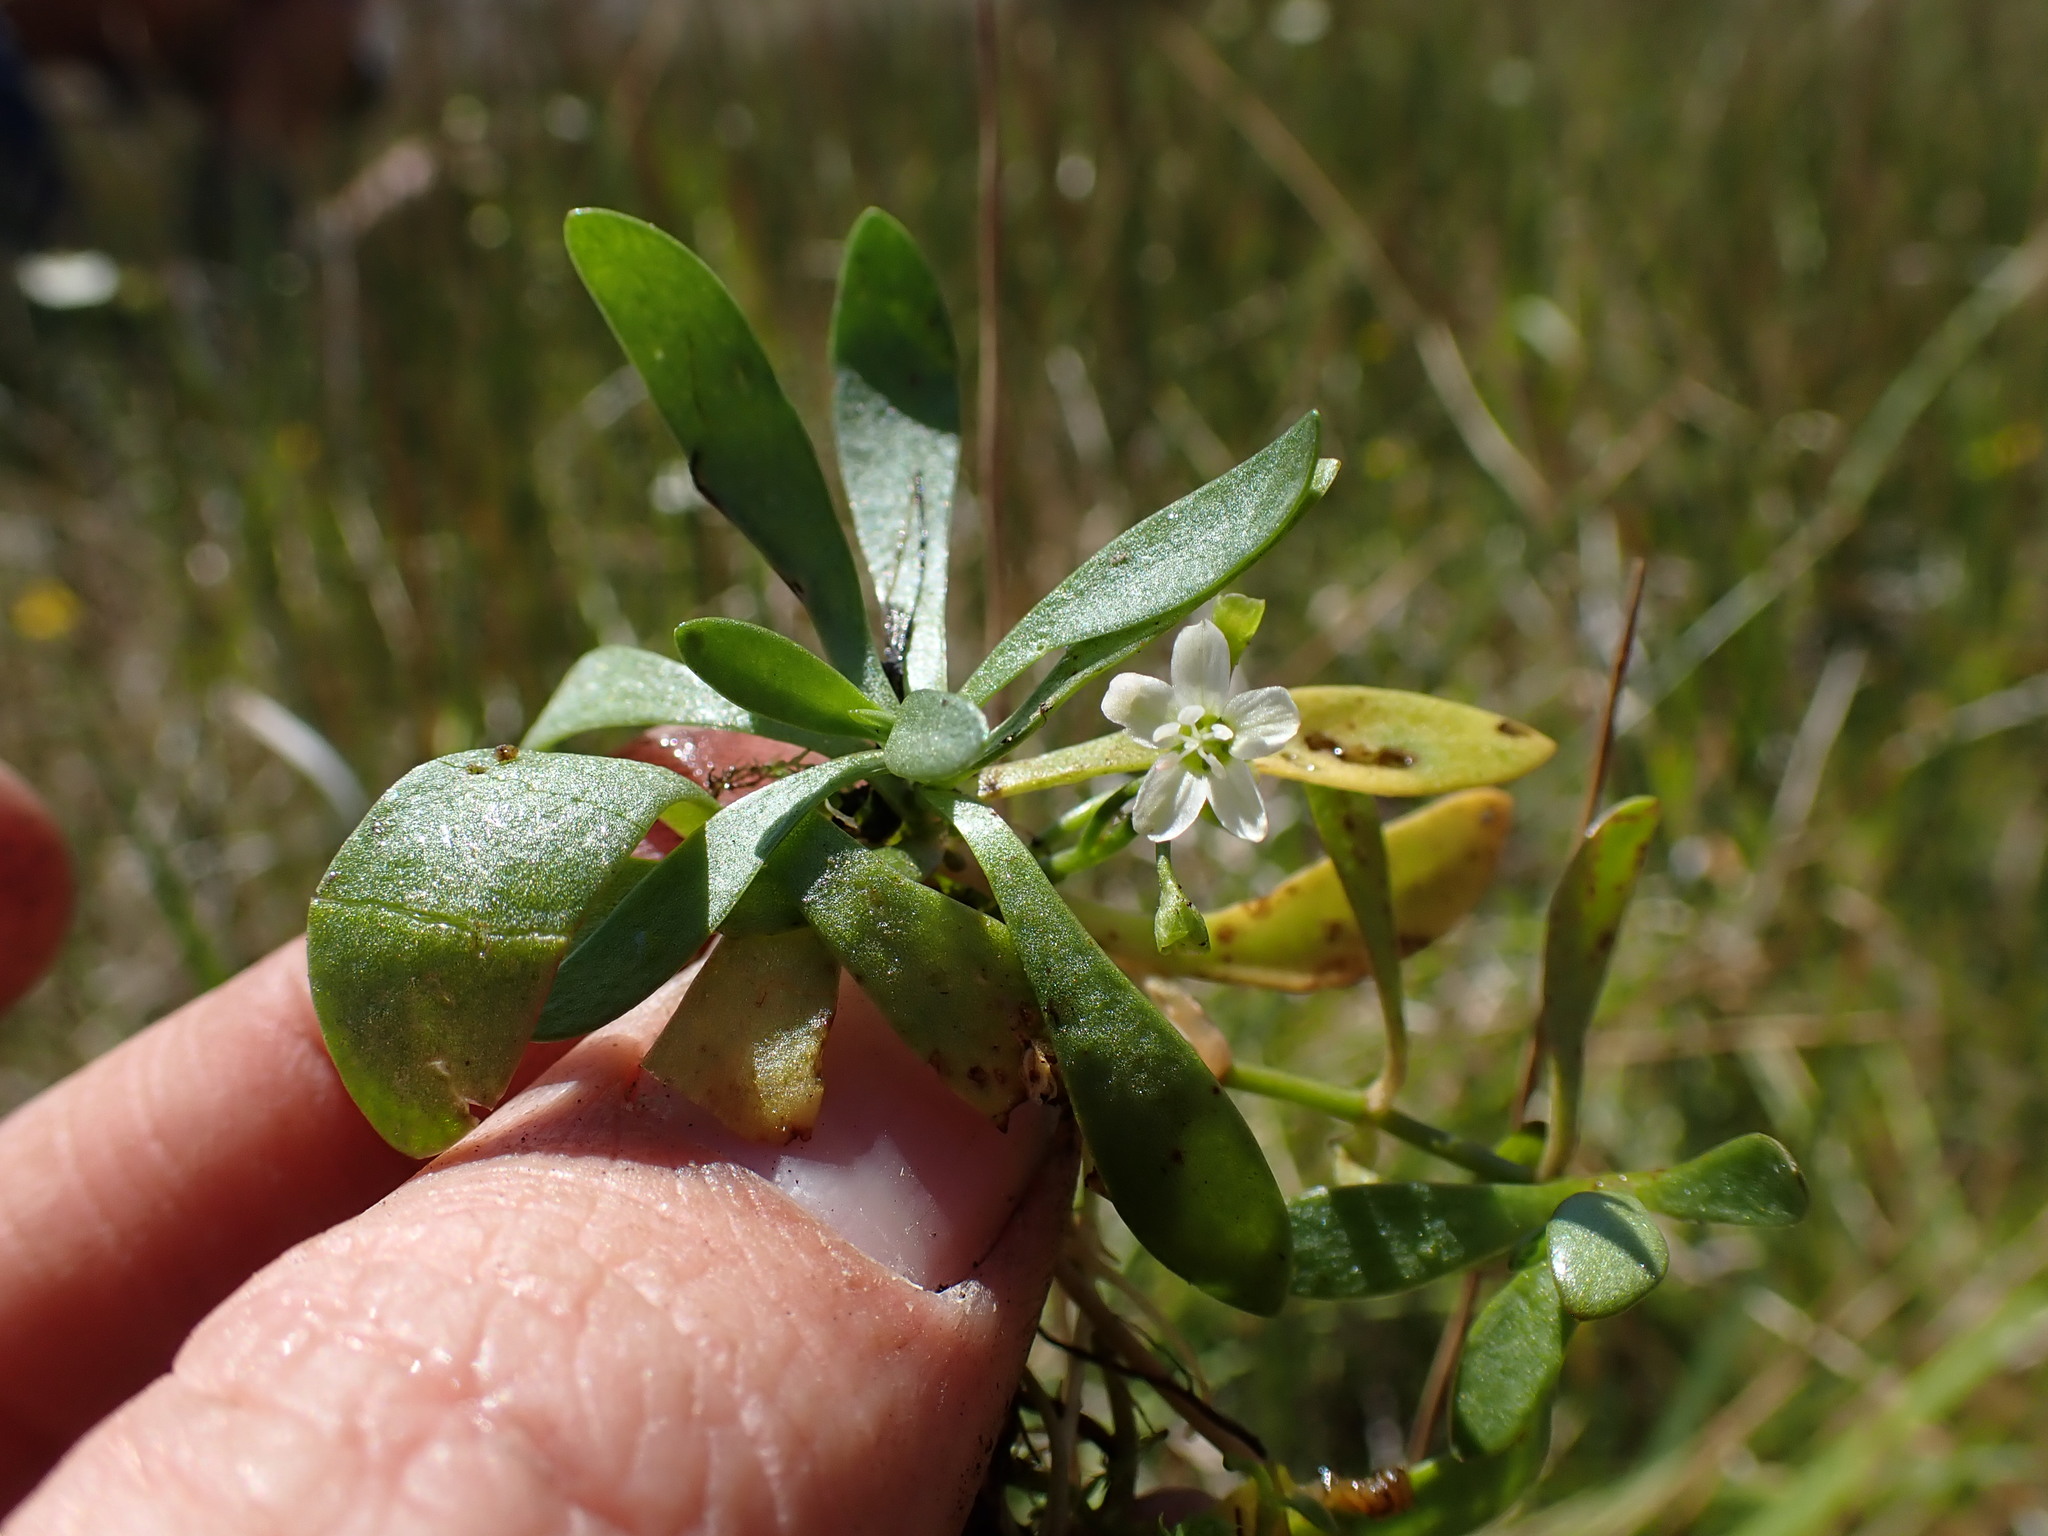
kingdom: Plantae
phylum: Tracheophyta
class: Magnoliopsida
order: Caryophyllales
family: Montiaceae
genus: Montia
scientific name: Montia chamissoi
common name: Chamisso's candyflower
